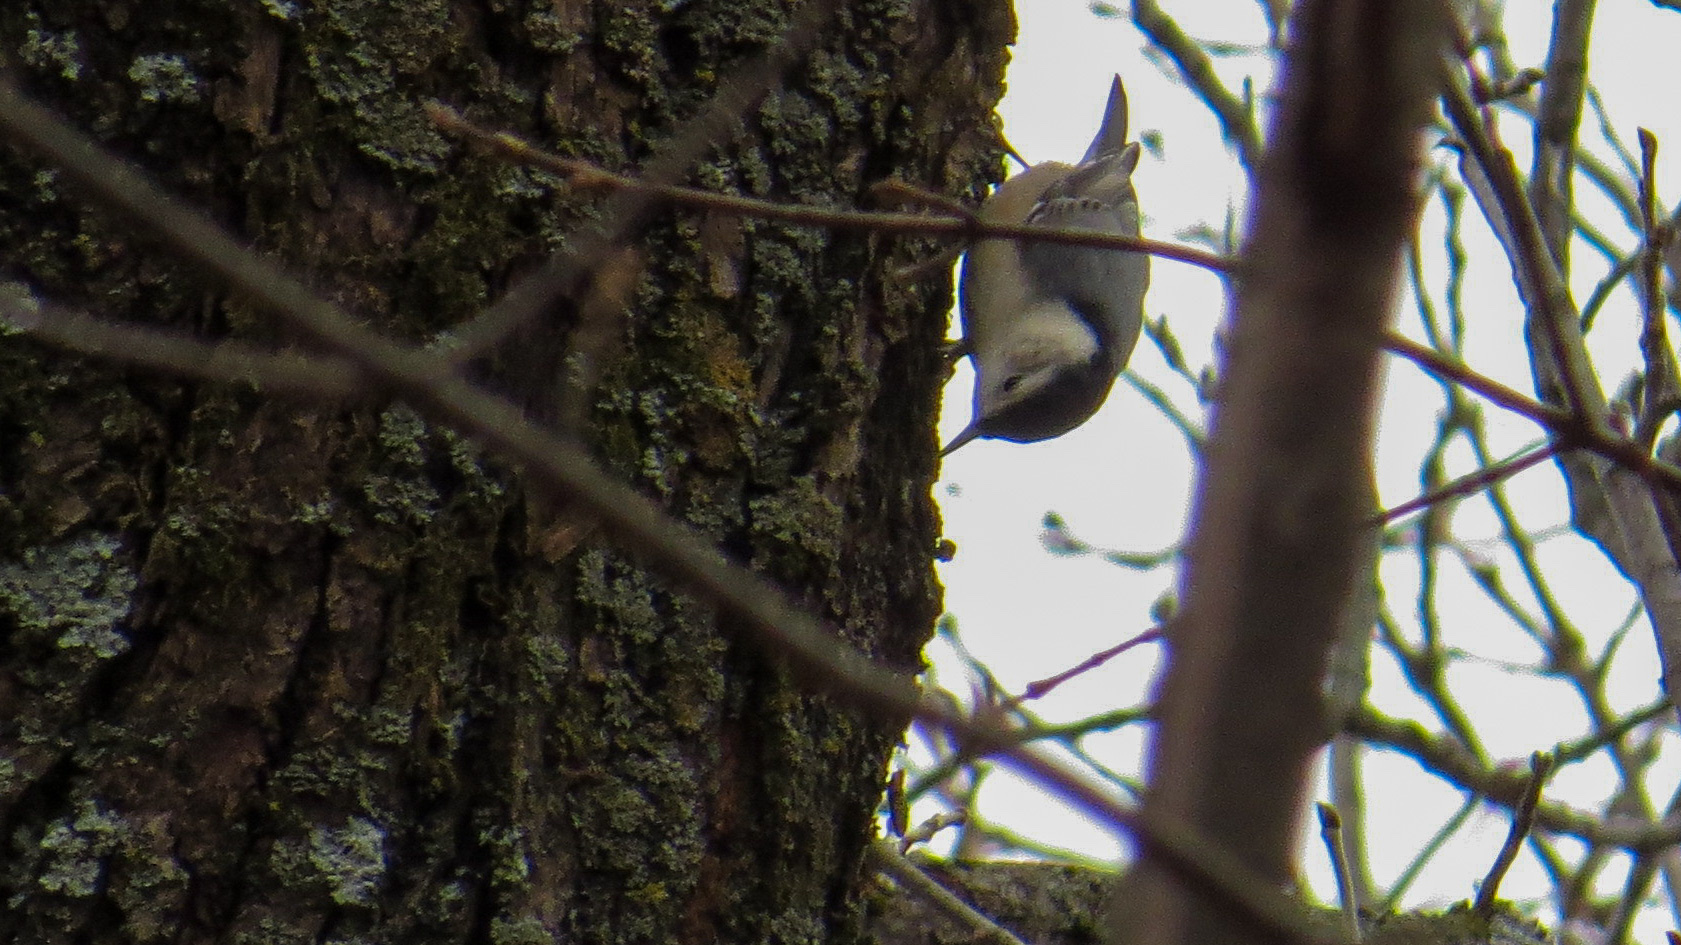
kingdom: Animalia
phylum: Chordata
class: Aves
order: Passeriformes
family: Sittidae
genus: Sitta
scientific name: Sitta carolinensis
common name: White-breasted nuthatch
